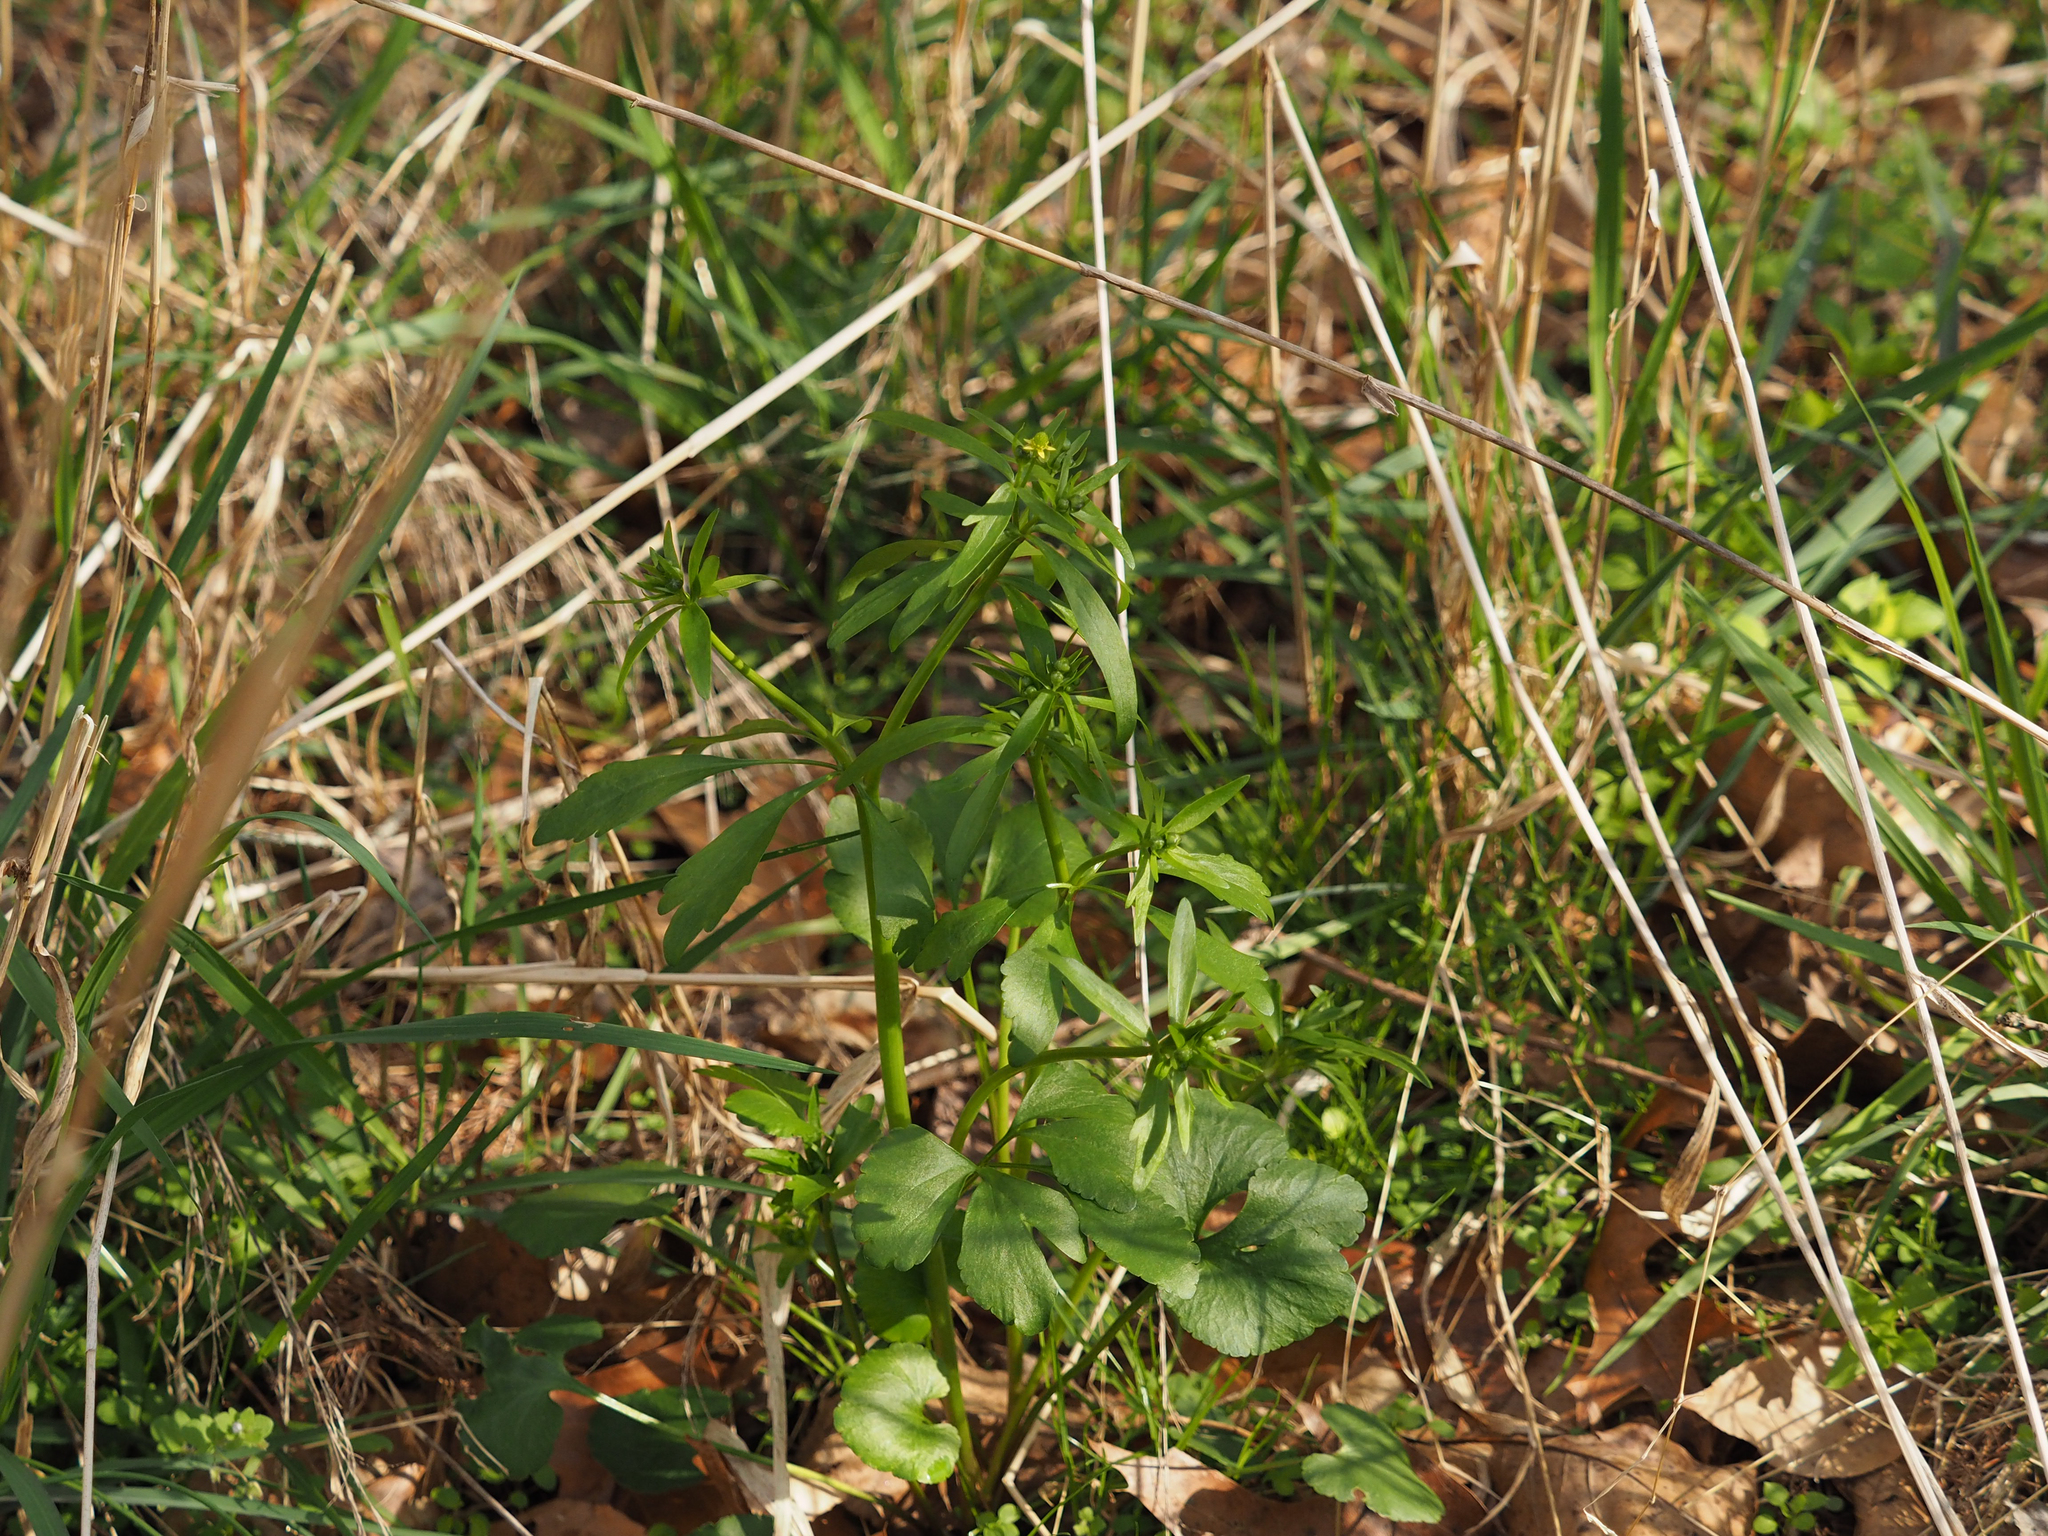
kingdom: Plantae
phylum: Tracheophyta
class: Magnoliopsida
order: Ranunculales
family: Ranunculaceae
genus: Ranunculus
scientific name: Ranunculus abortivus
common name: Early wood buttercup
